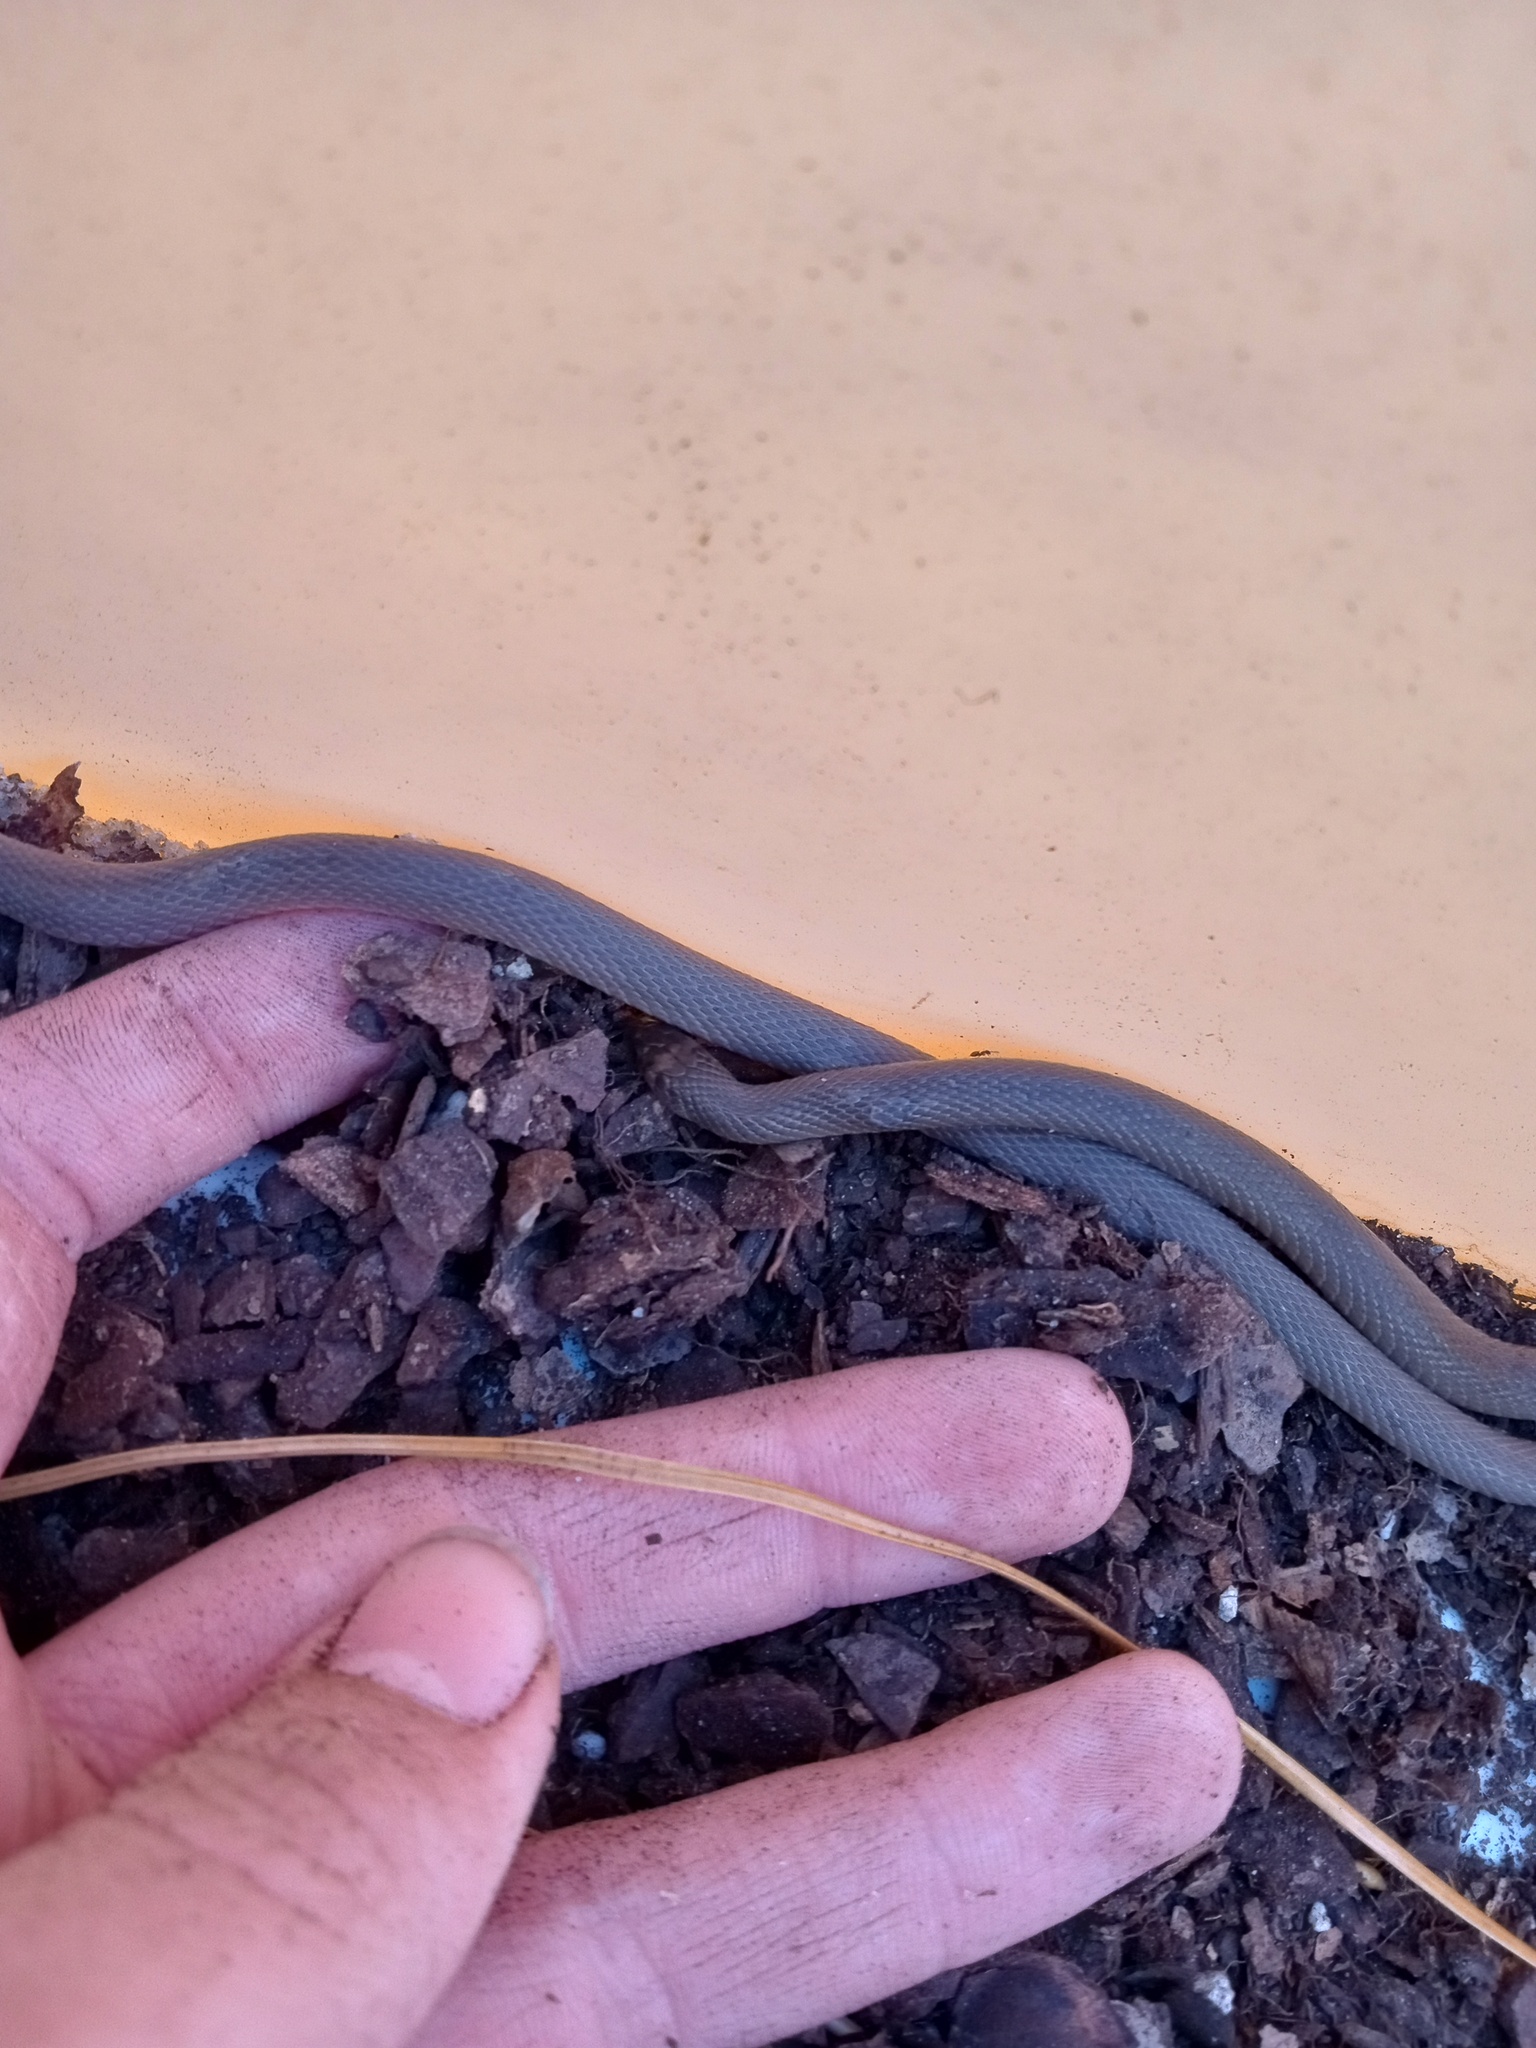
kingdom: Animalia
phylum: Chordata
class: Squamata
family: Colubridae
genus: Haldea
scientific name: Haldea striatula
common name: Rough earth snake
